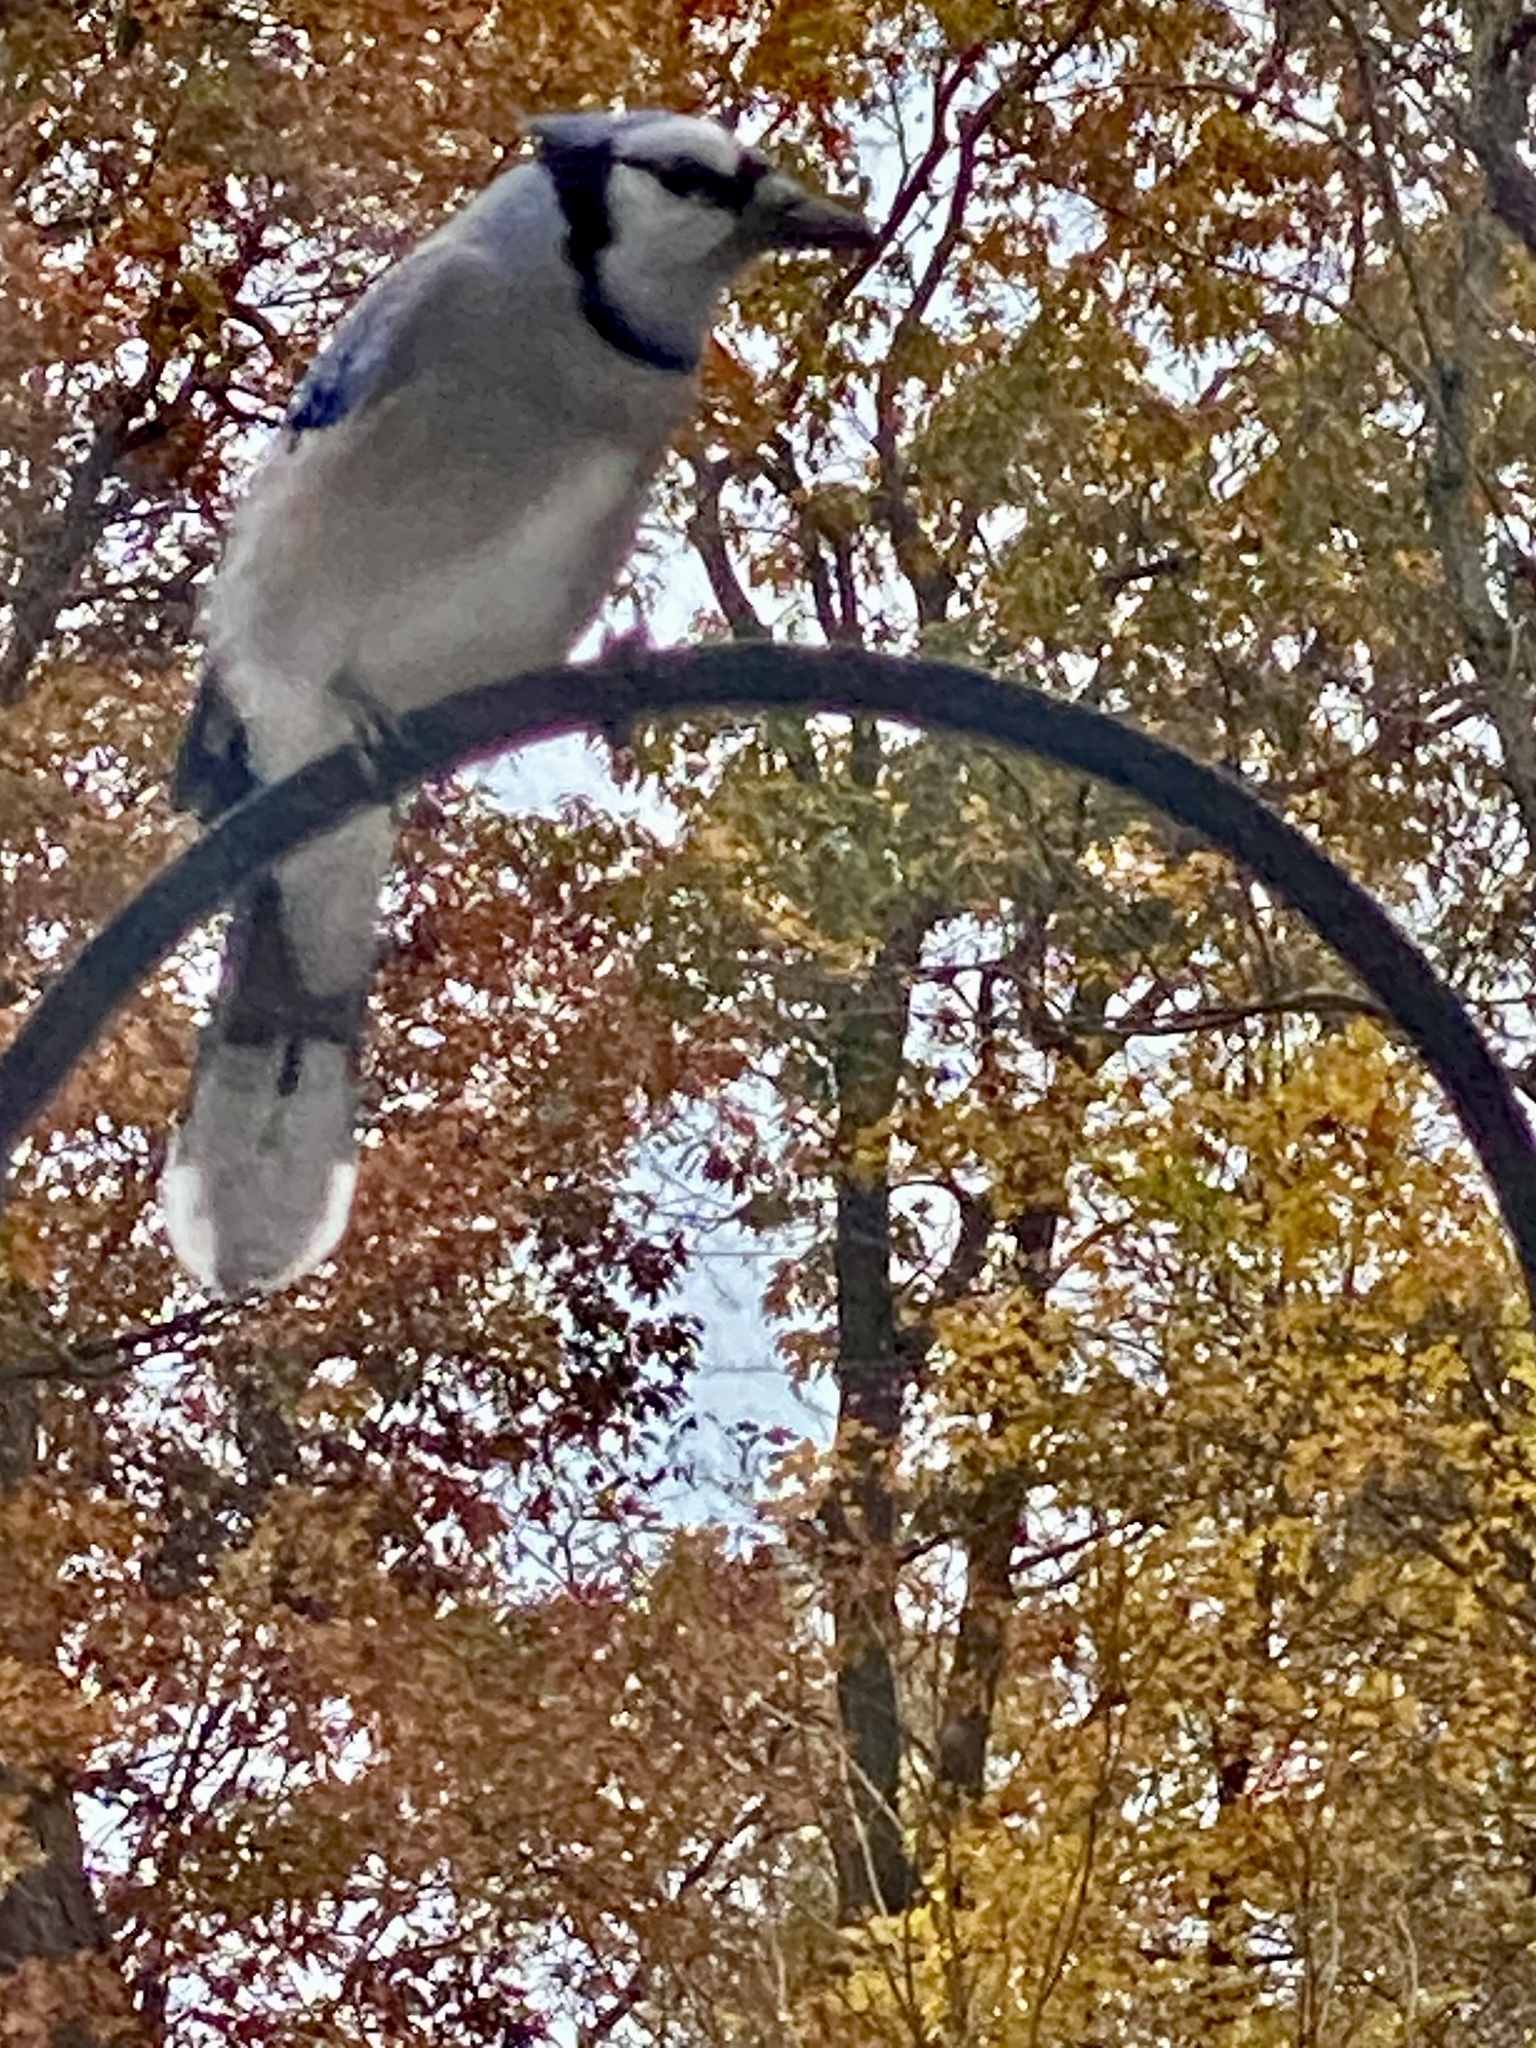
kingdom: Animalia
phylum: Chordata
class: Aves
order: Passeriformes
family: Corvidae
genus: Cyanocitta
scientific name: Cyanocitta cristata
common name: Blue jay
